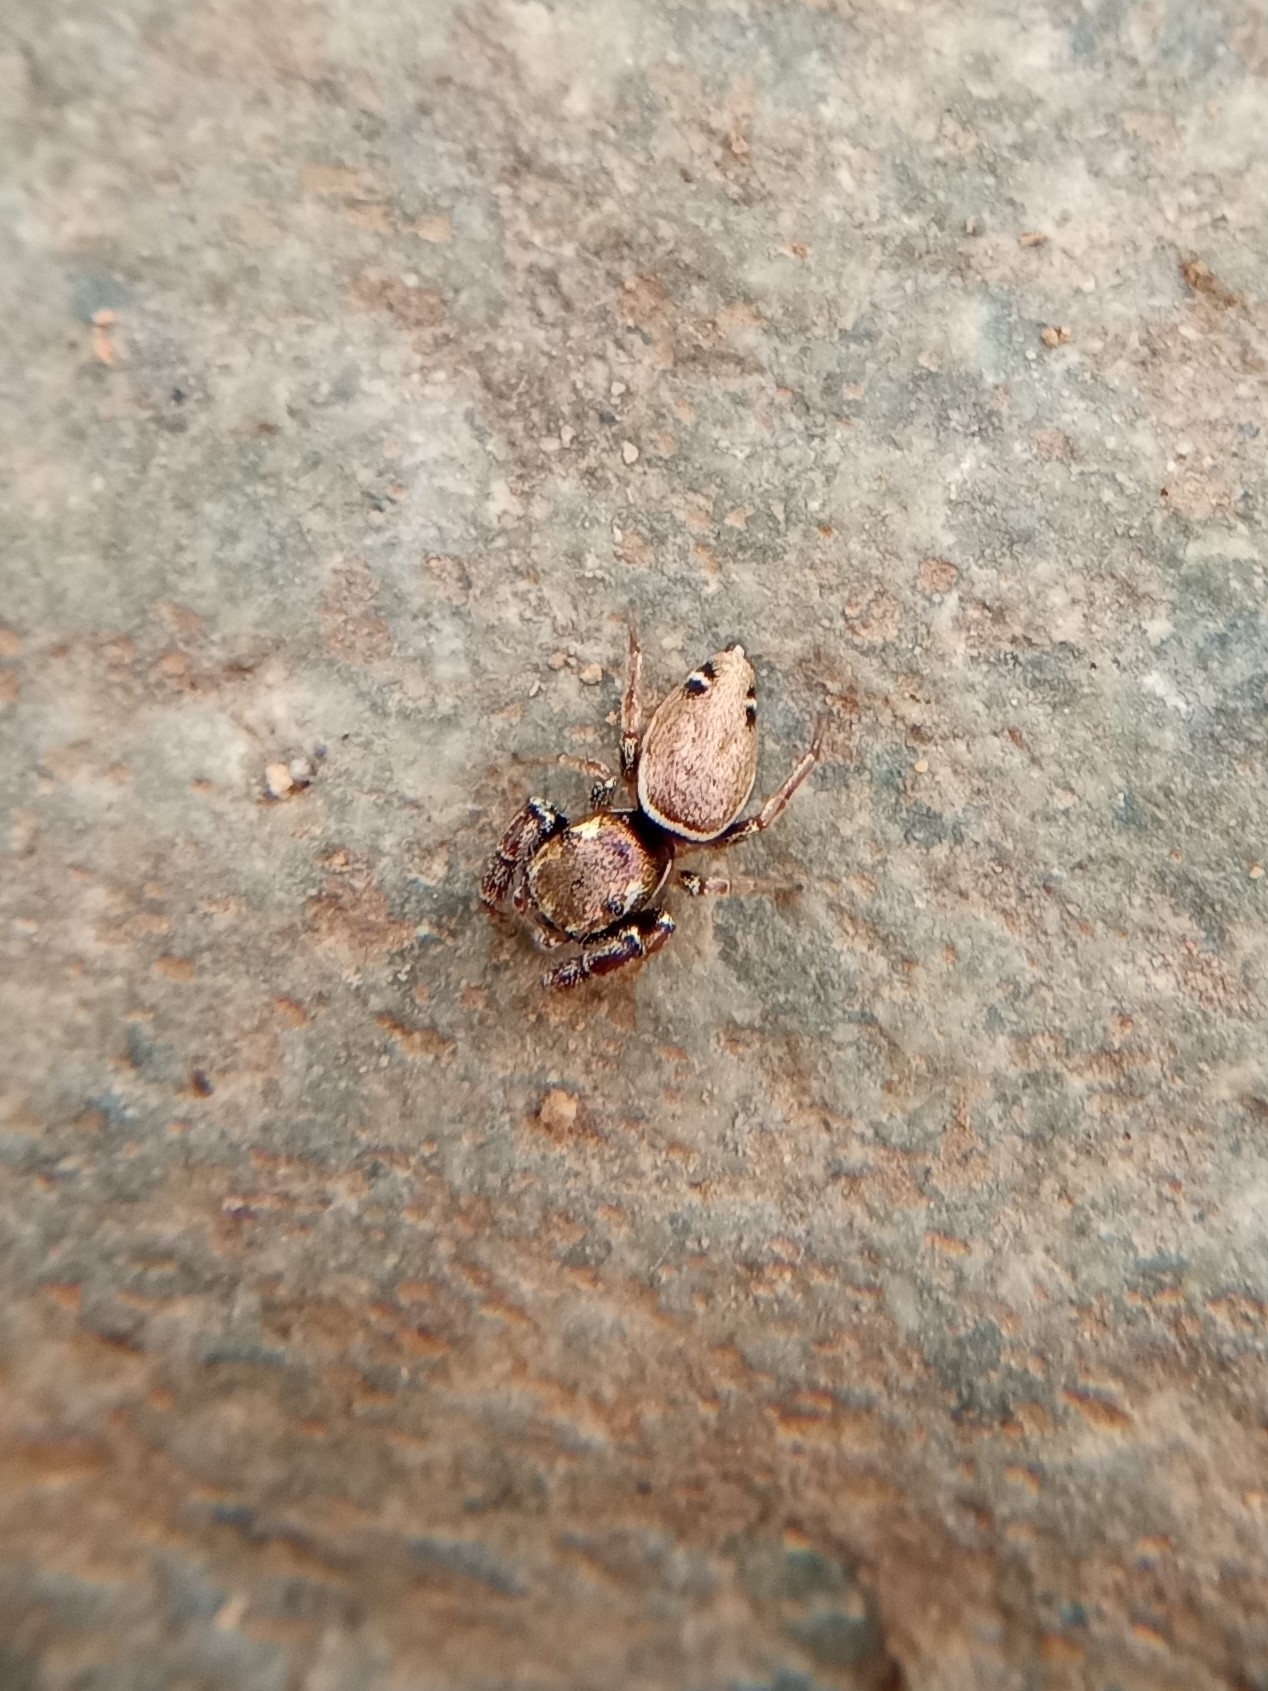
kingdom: Animalia
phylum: Arthropoda
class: Arachnida
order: Araneae
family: Salticidae
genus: Sassacus
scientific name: Sassacus vitis
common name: Jumping spiders
